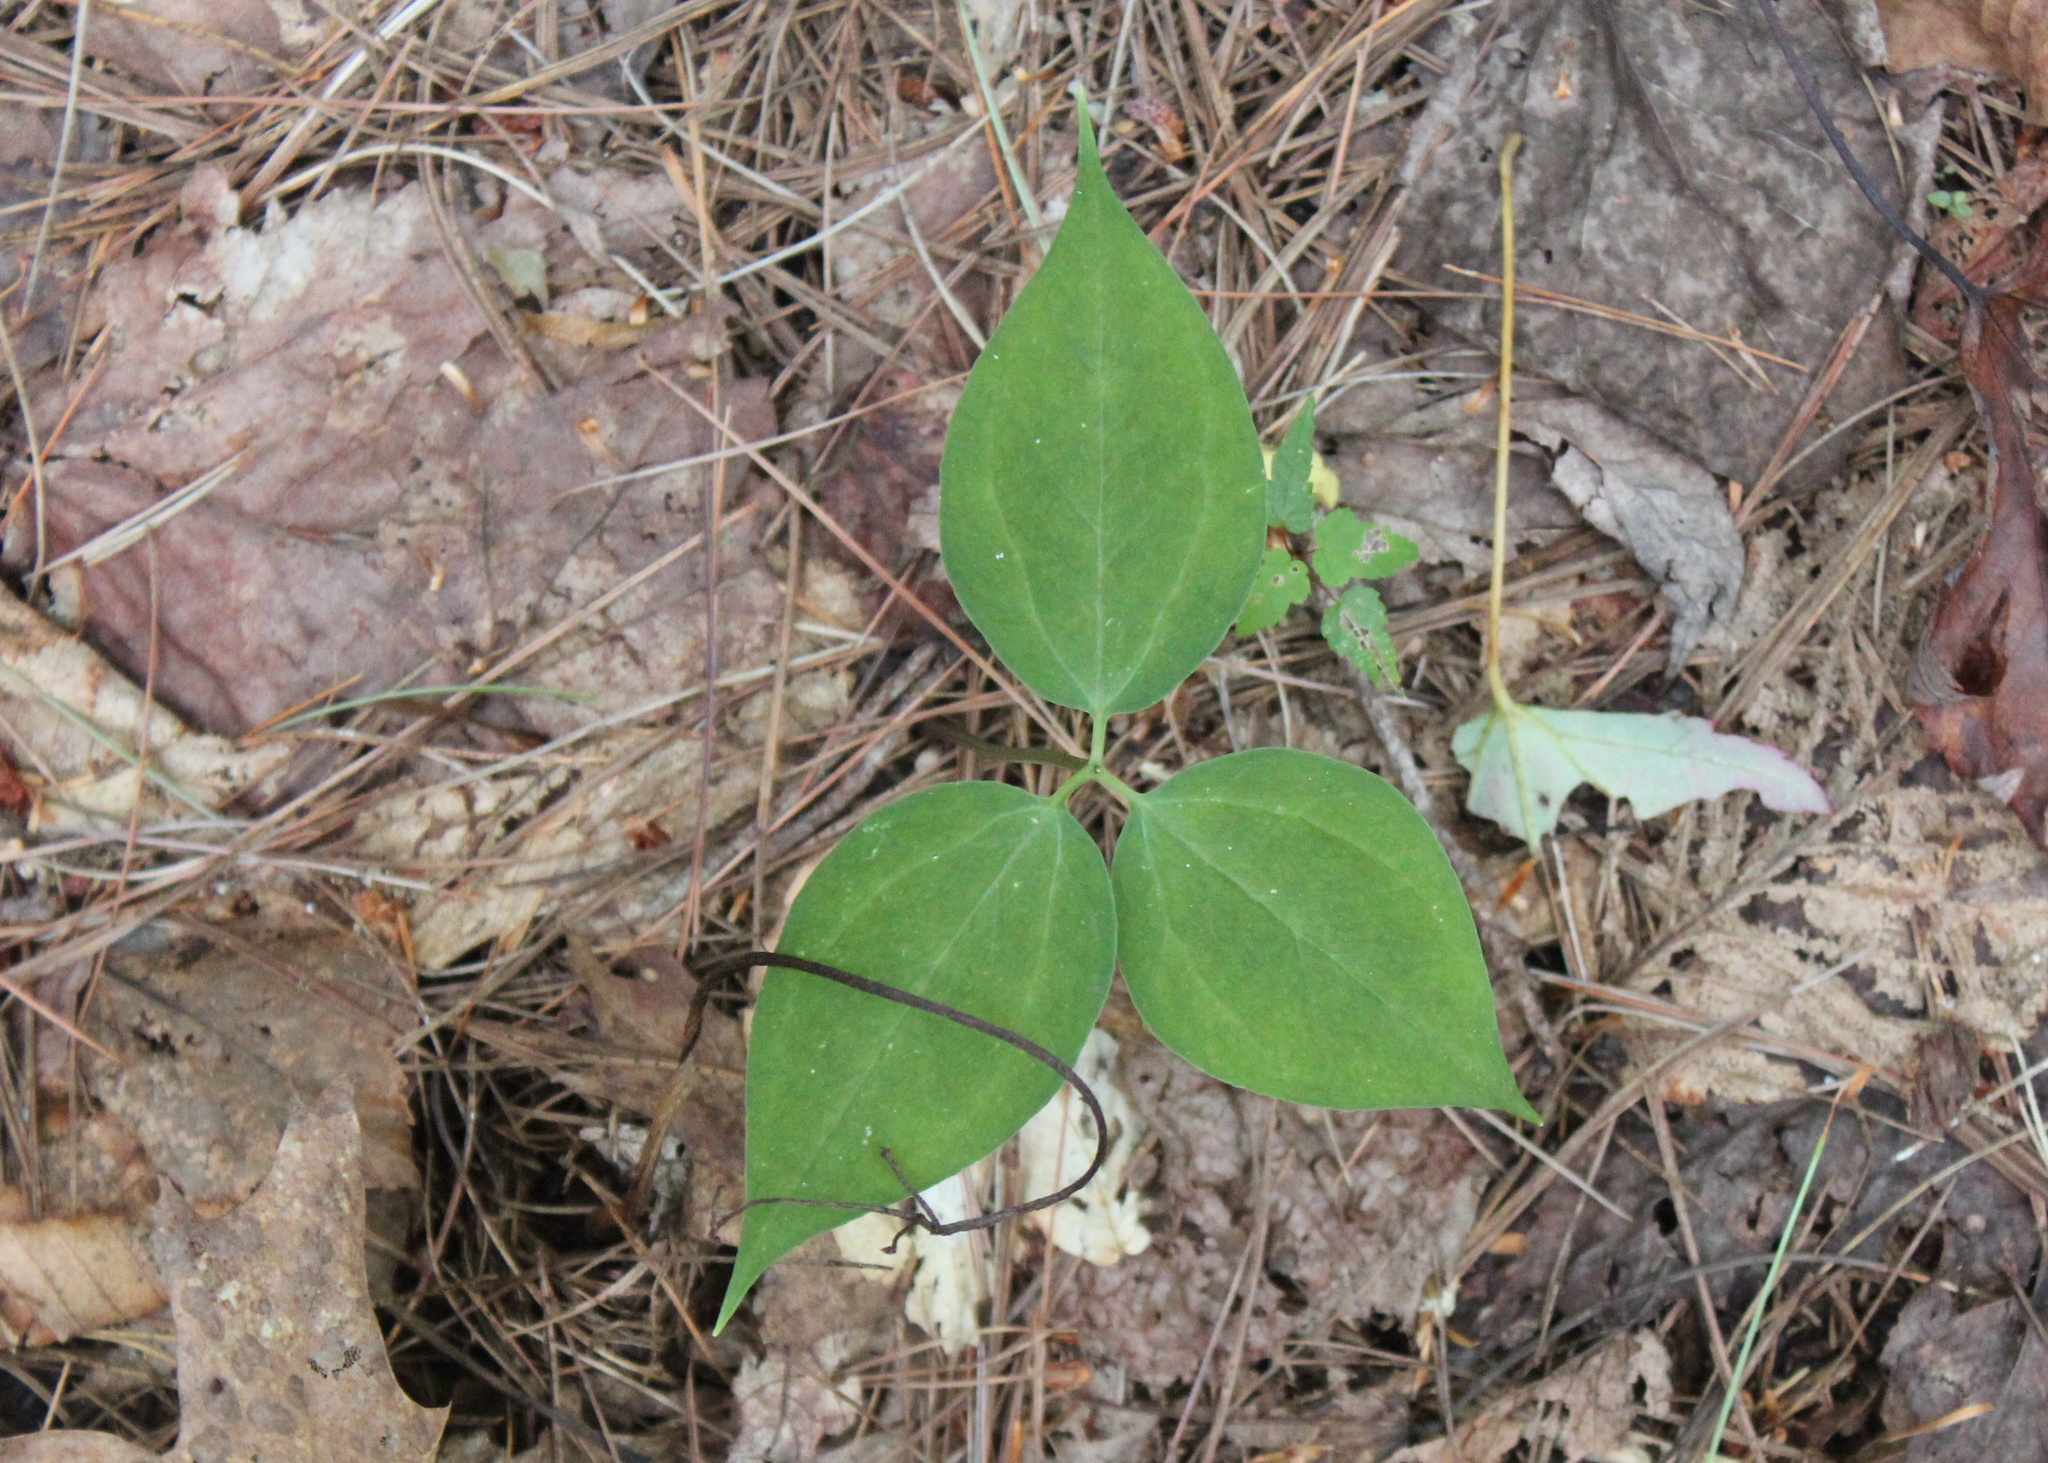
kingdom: Plantae
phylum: Tracheophyta
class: Liliopsida
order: Liliales
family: Melanthiaceae
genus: Trillium
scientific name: Trillium undulatum
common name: Paint trillium
